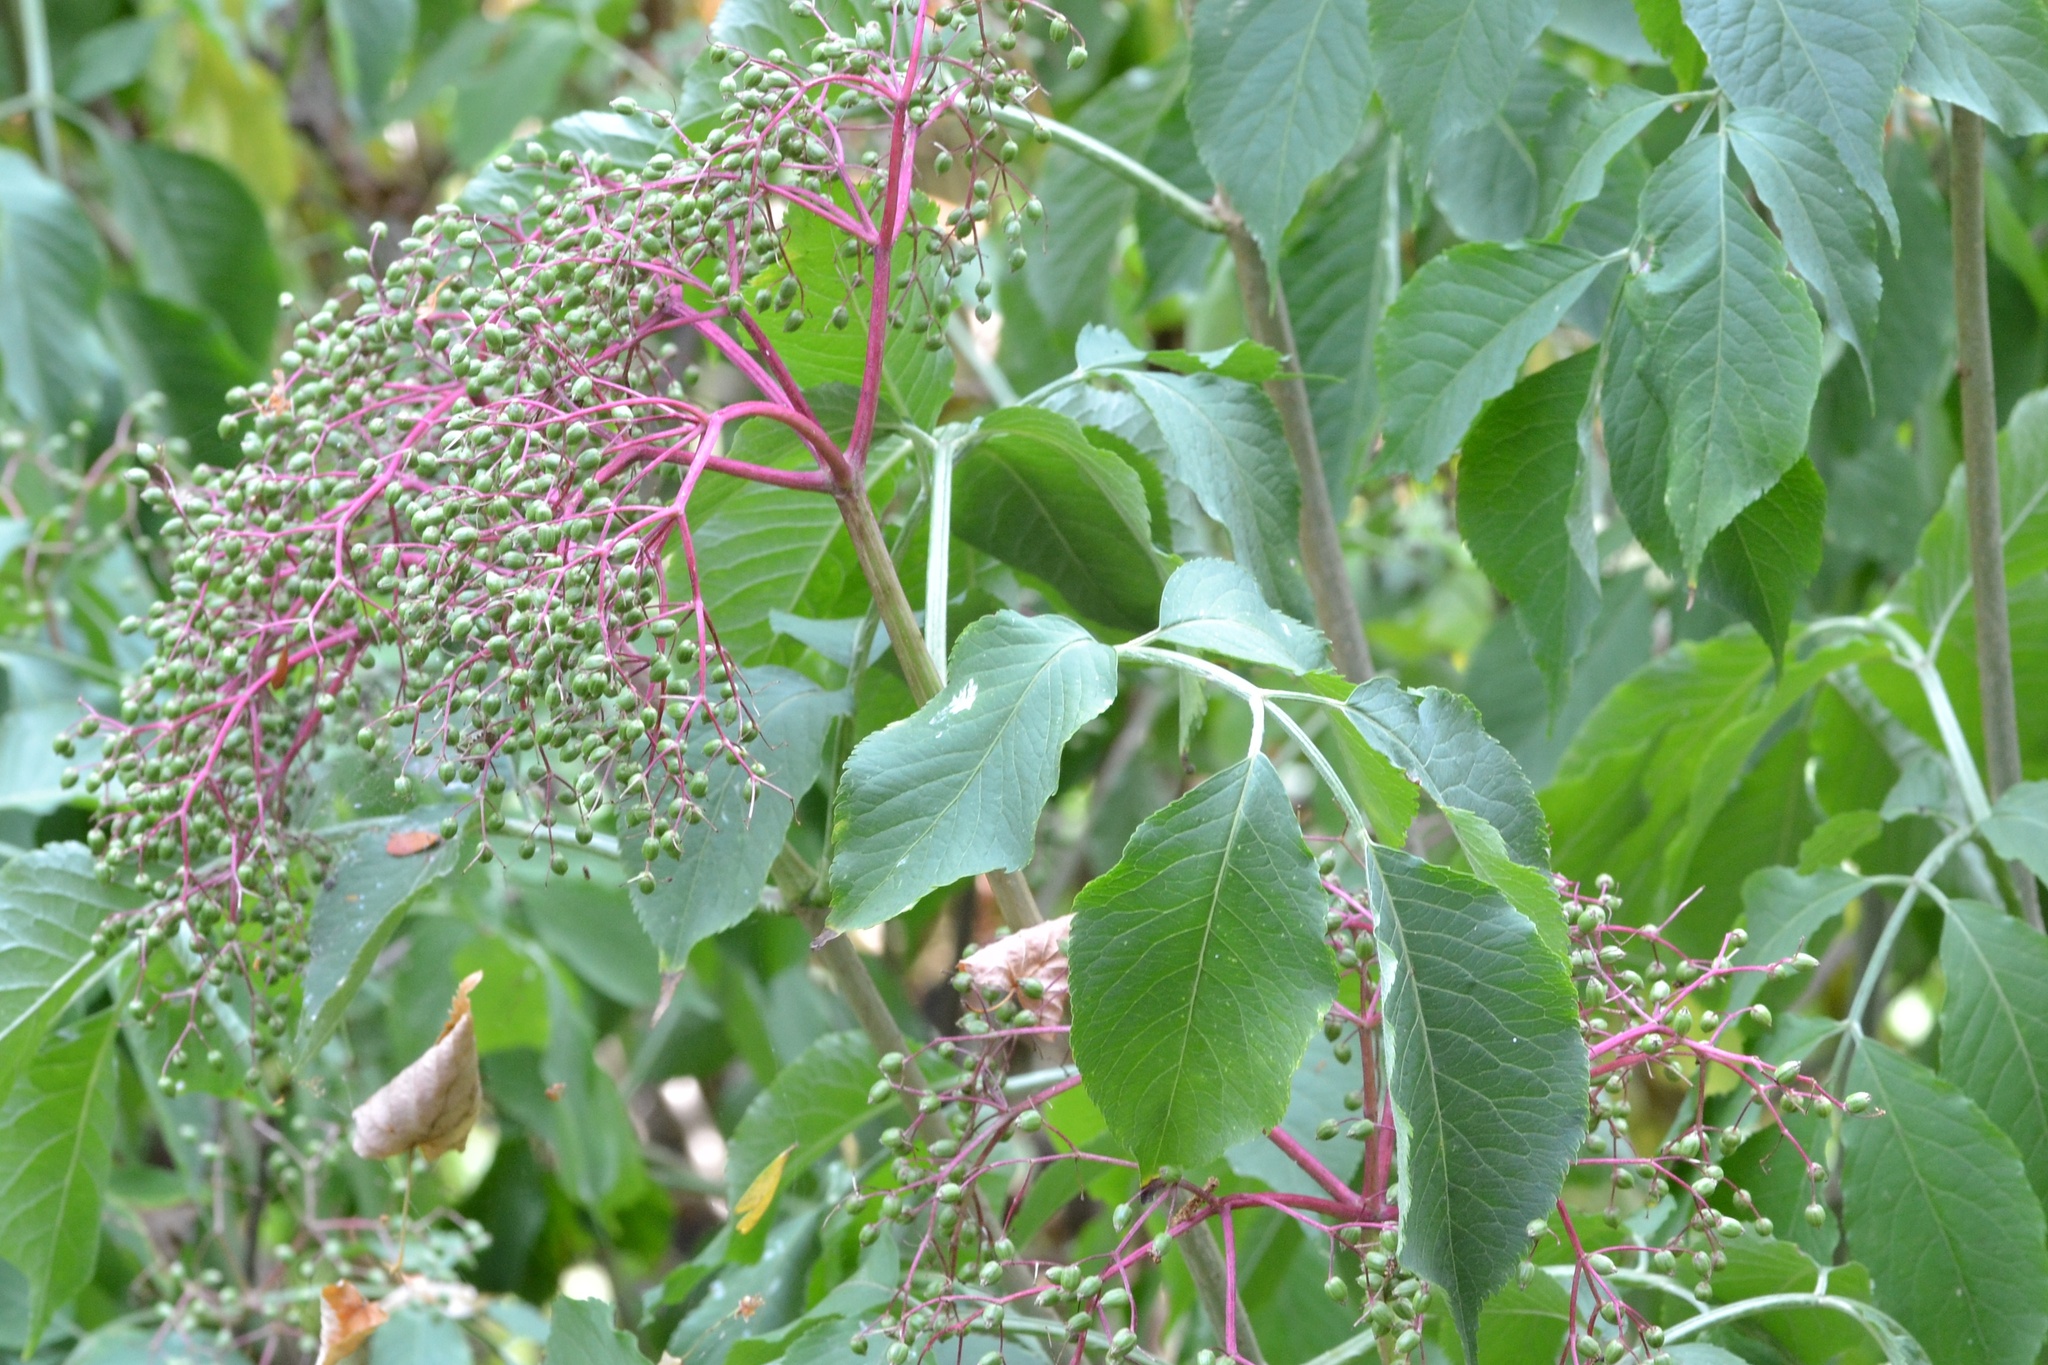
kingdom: Plantae
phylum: Tracheophyta
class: Magnoliopsida
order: Dipsacales
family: Viburnaceae
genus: Sambucus
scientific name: Sambucus nigra
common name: Elder
